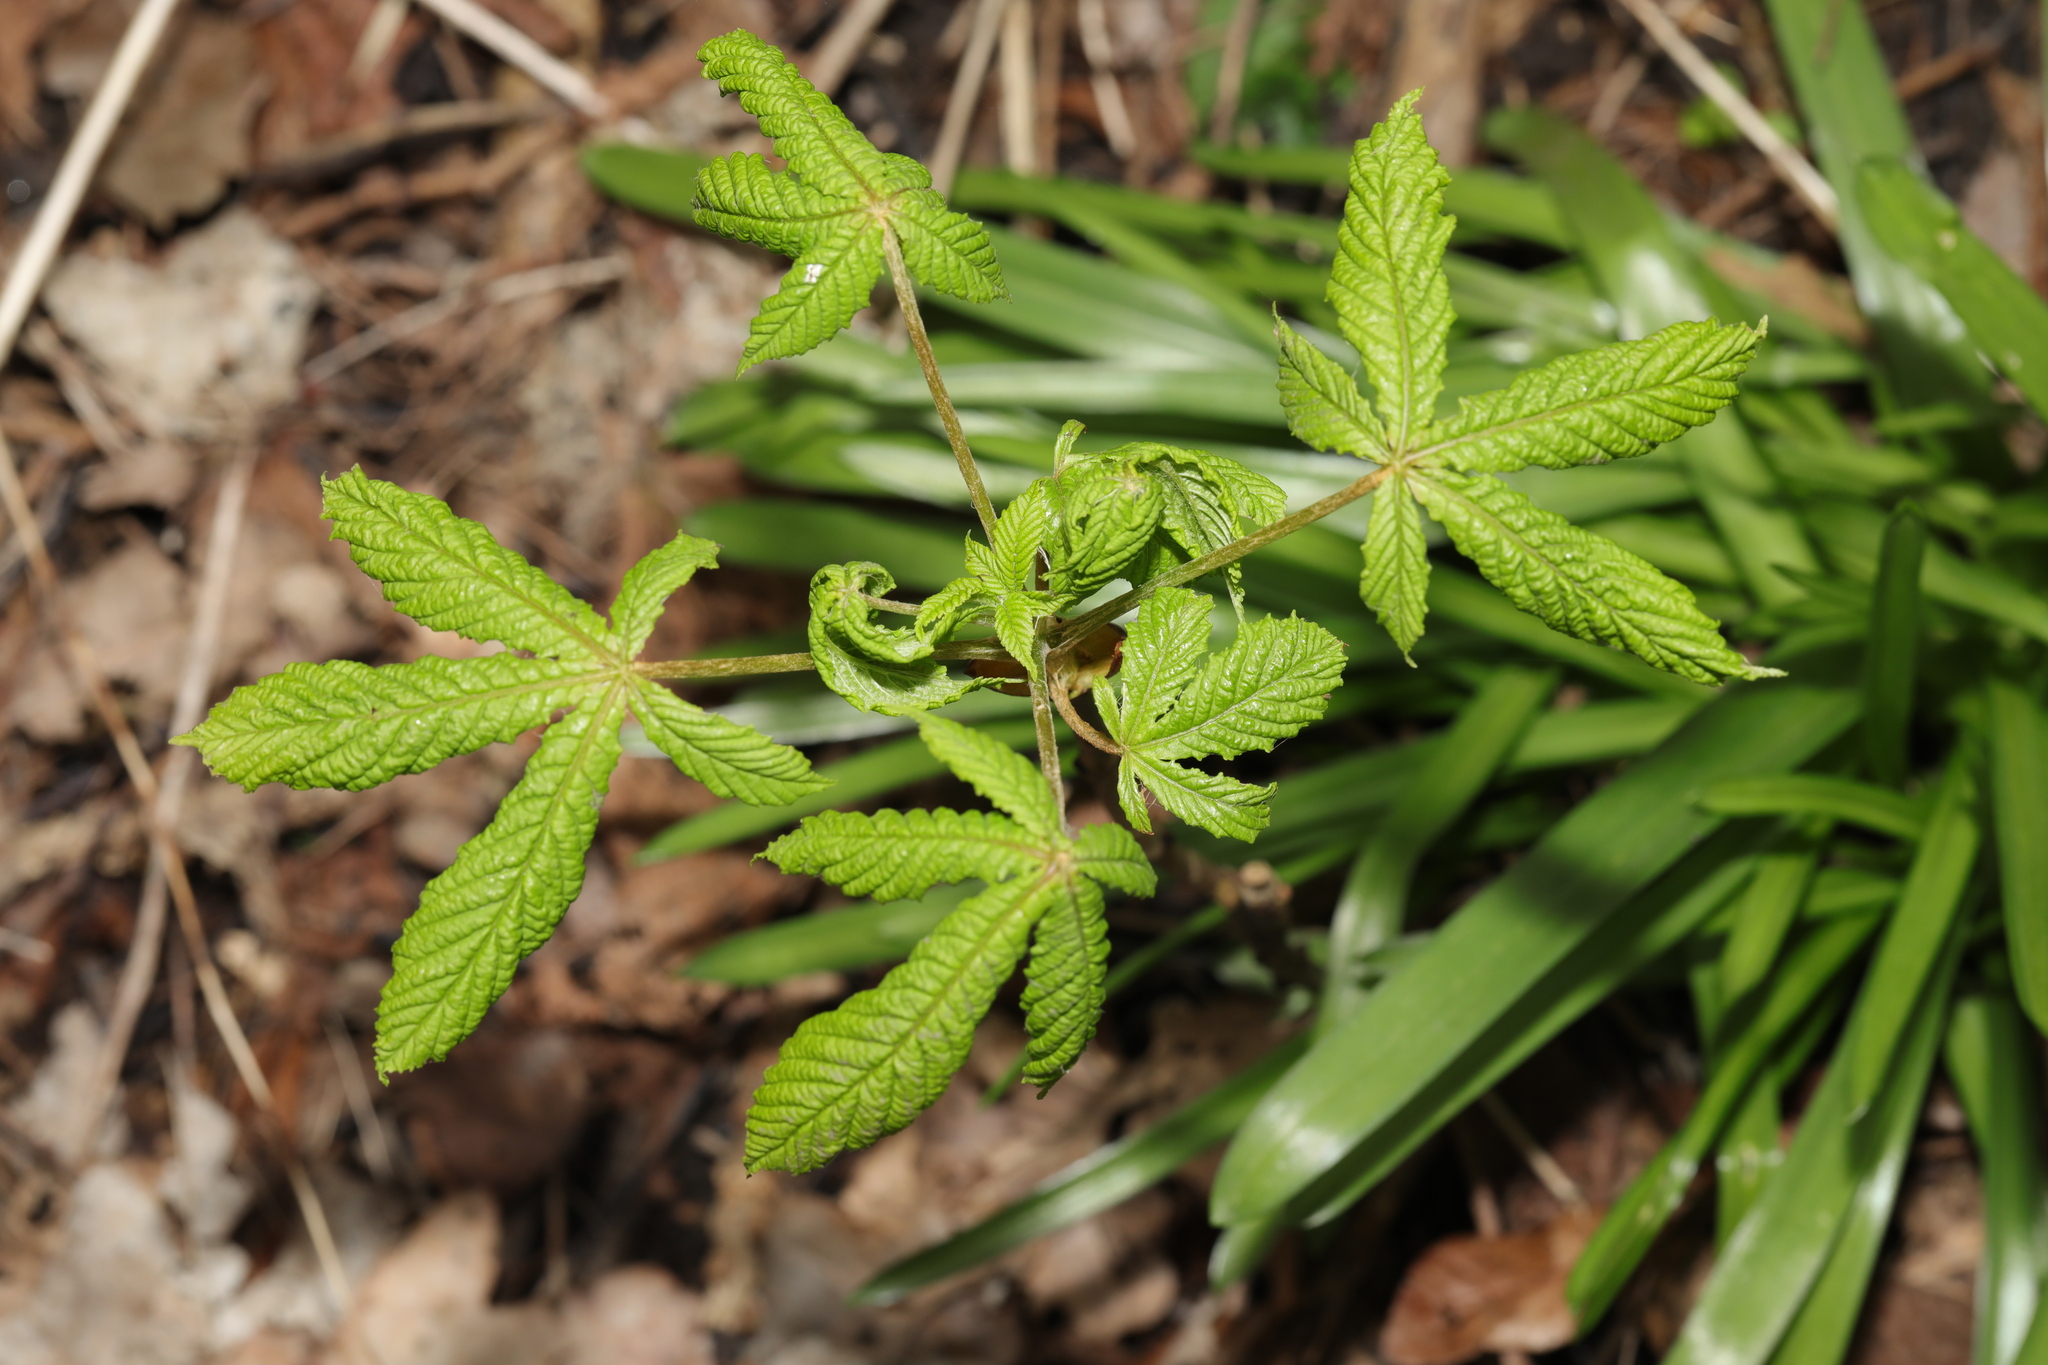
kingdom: Plantae
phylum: Tracheophyta
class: Magnoliopsida
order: Sapindales
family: Sapindaceae
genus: Aesculus
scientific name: Aesculus hippocastanum
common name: Horse-chestnut
